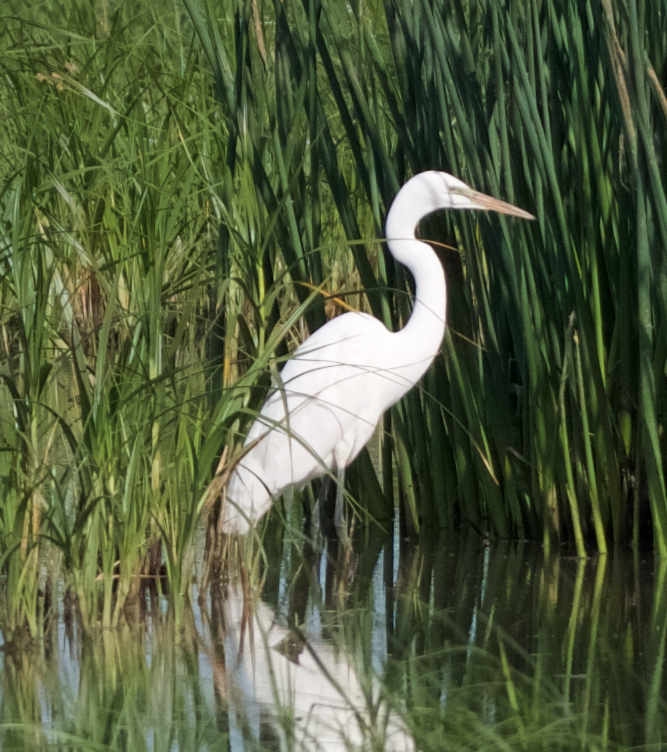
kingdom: Animalia
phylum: Chordata
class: Aves
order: Pelecaniformes
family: Ardeidae
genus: Ardea
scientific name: Ardea alba
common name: Great egret
